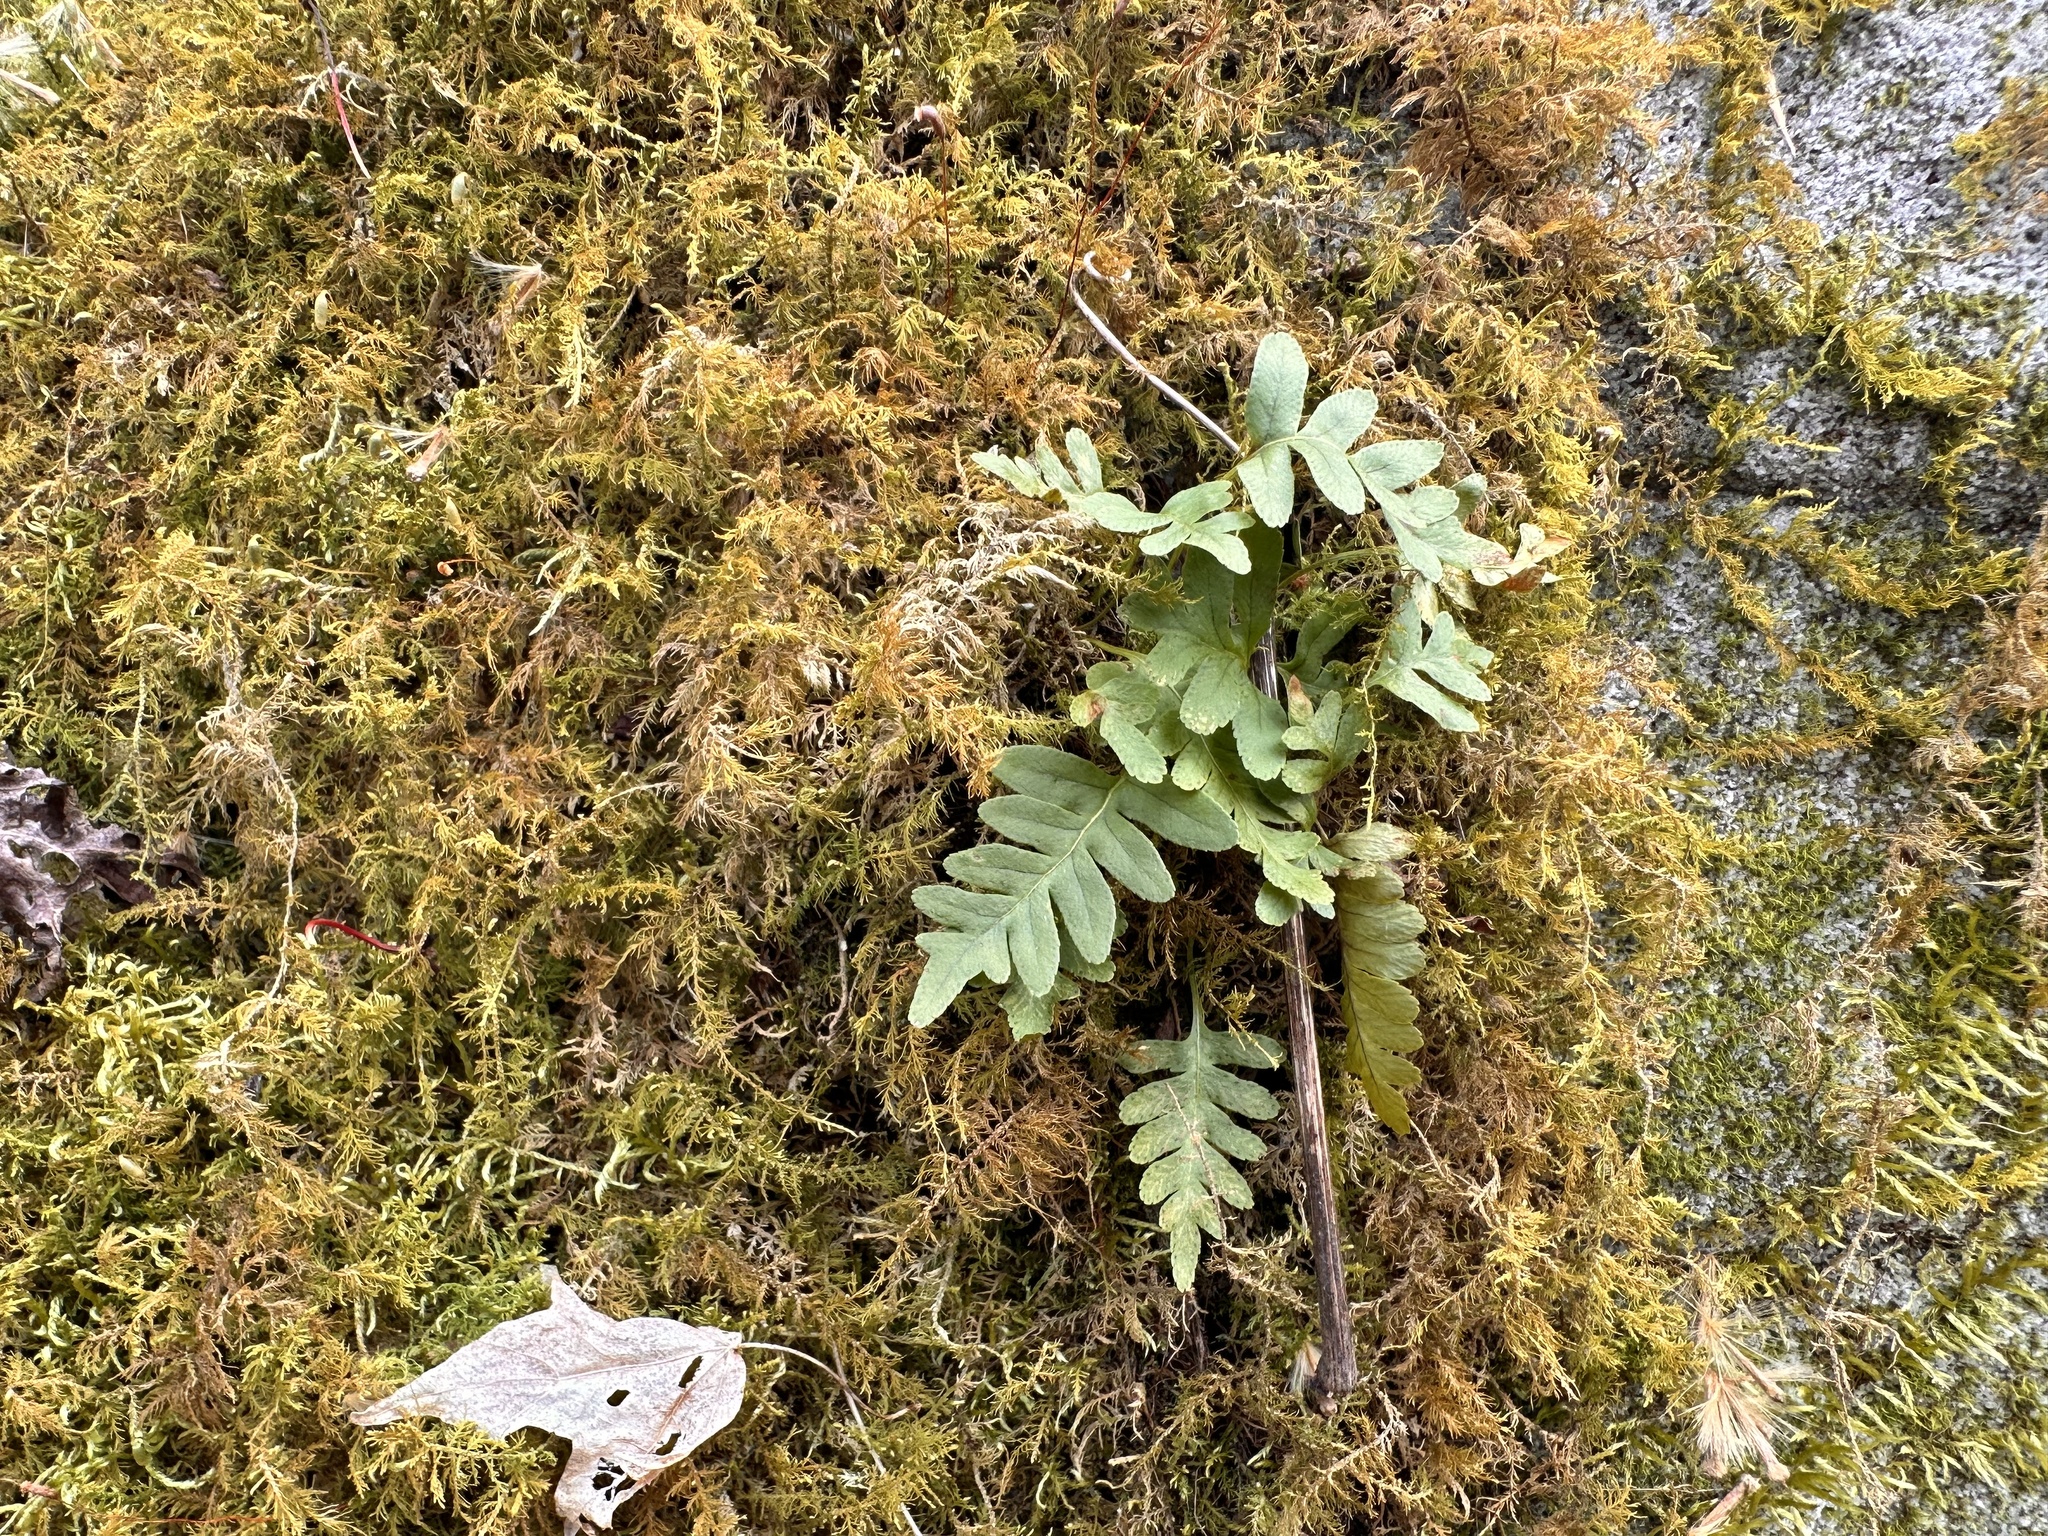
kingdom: Plantae
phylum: Tracheophyta
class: Polypodiopsida
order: Polypodiales
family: Polypodiaceae
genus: Polypodium
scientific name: Polypodium virginianum
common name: American wall fern
